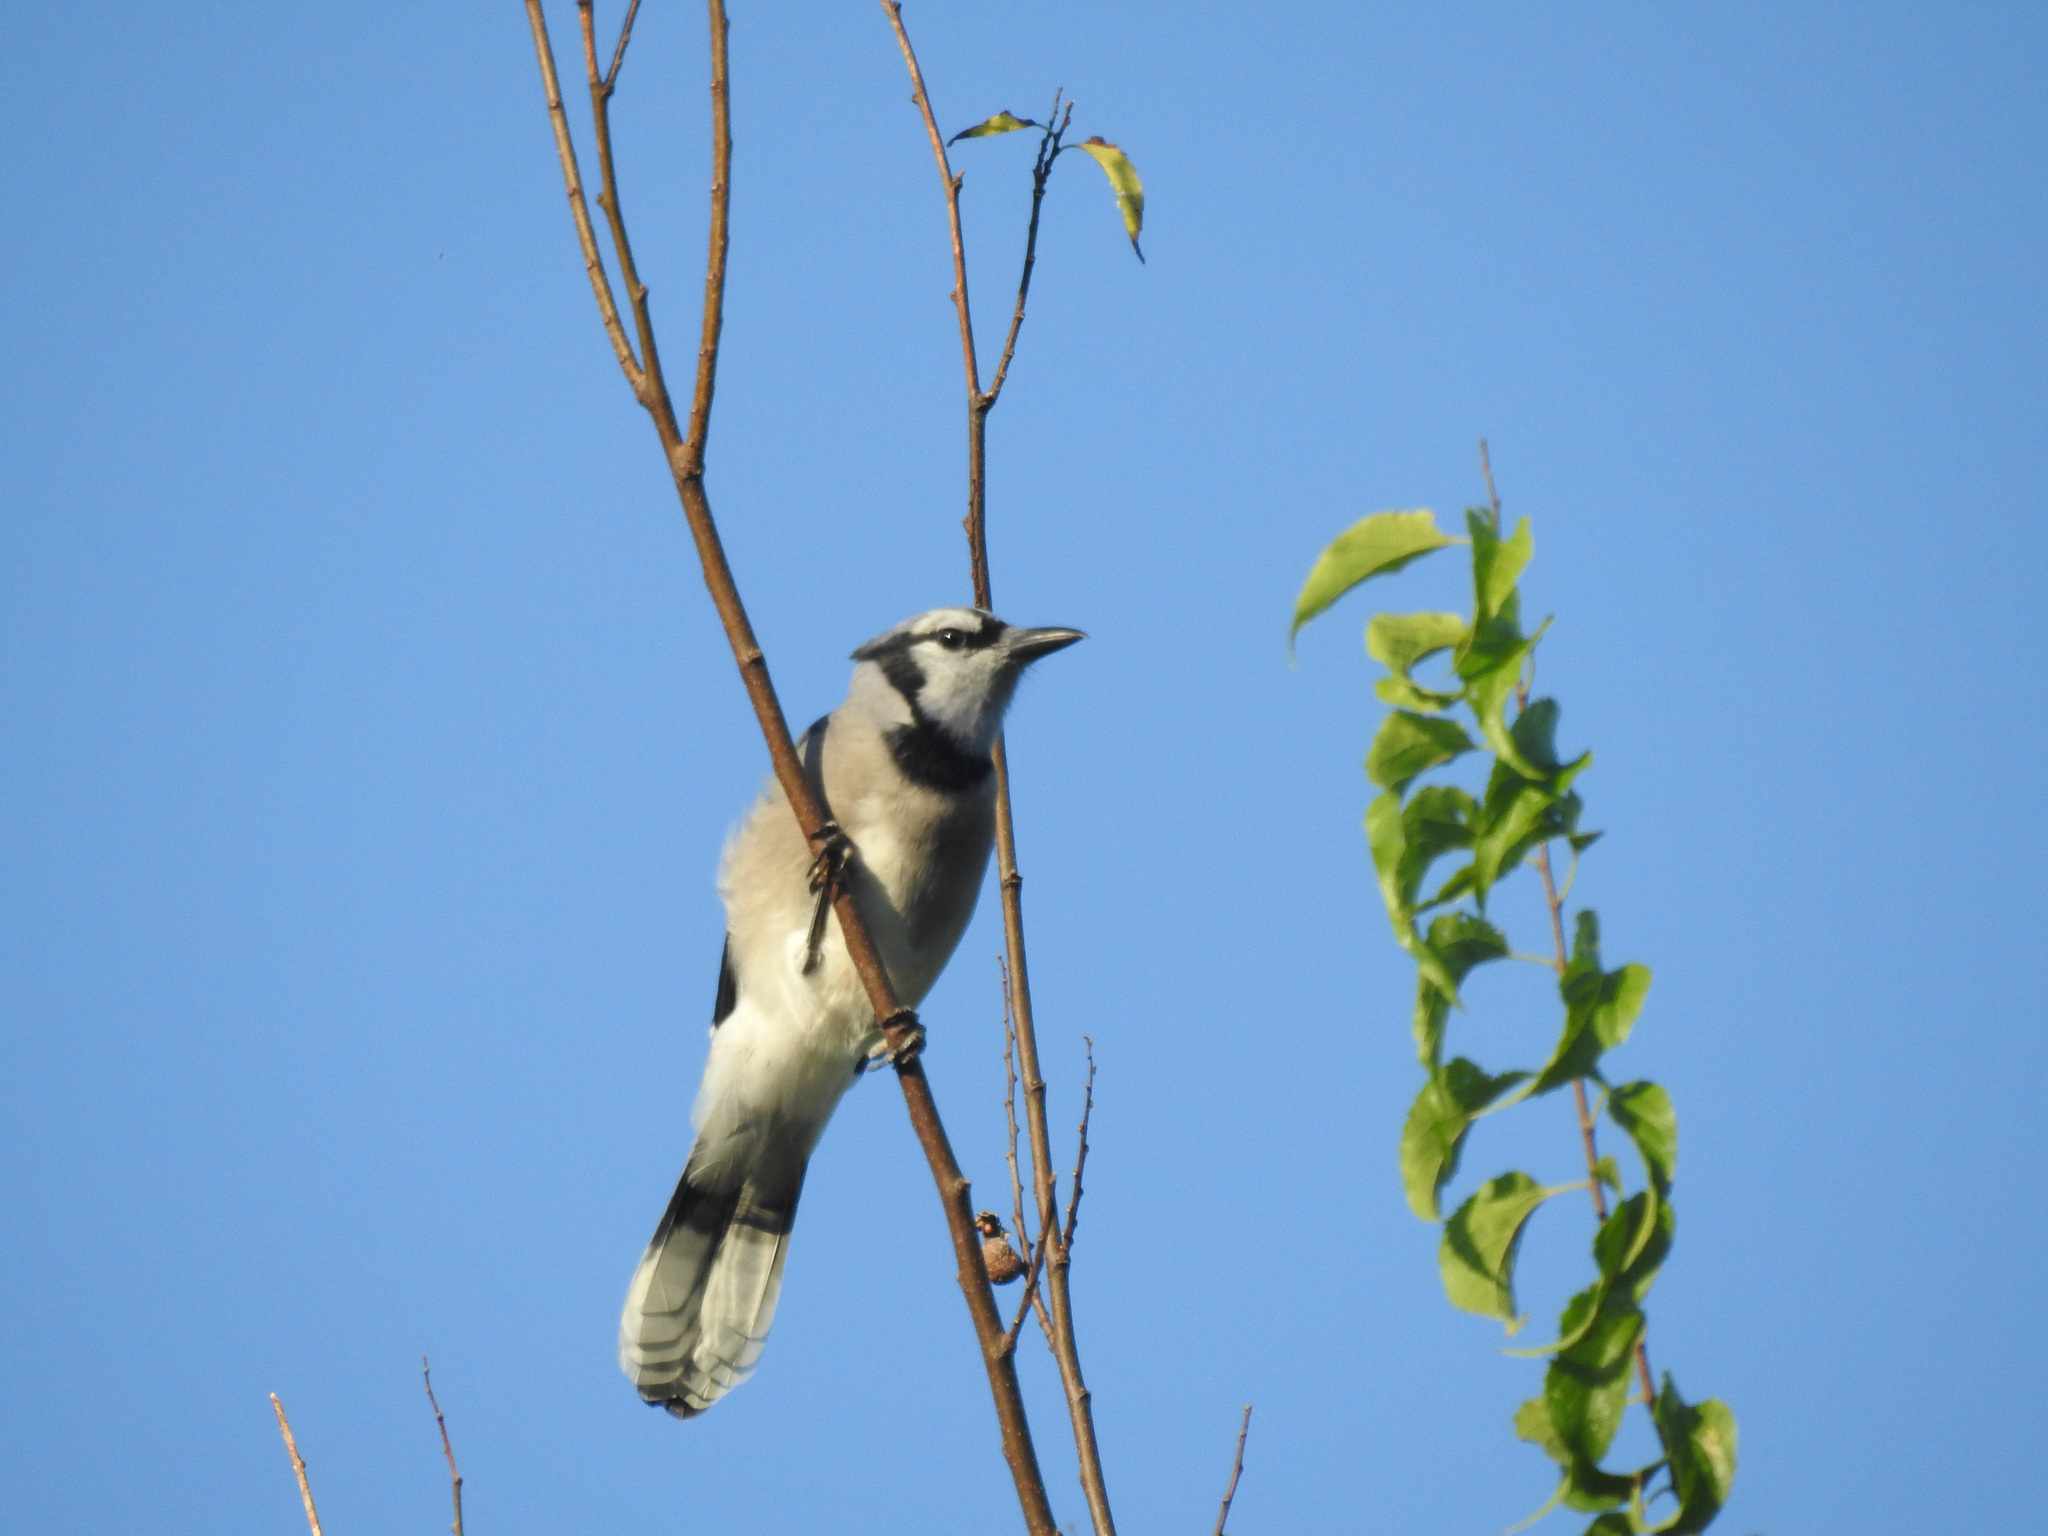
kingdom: Animalia
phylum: Chordata
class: Aves
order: Passeriformes
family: Corvidae
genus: Cyanocitta
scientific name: Cyanocitta cristata
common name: Blue jay
